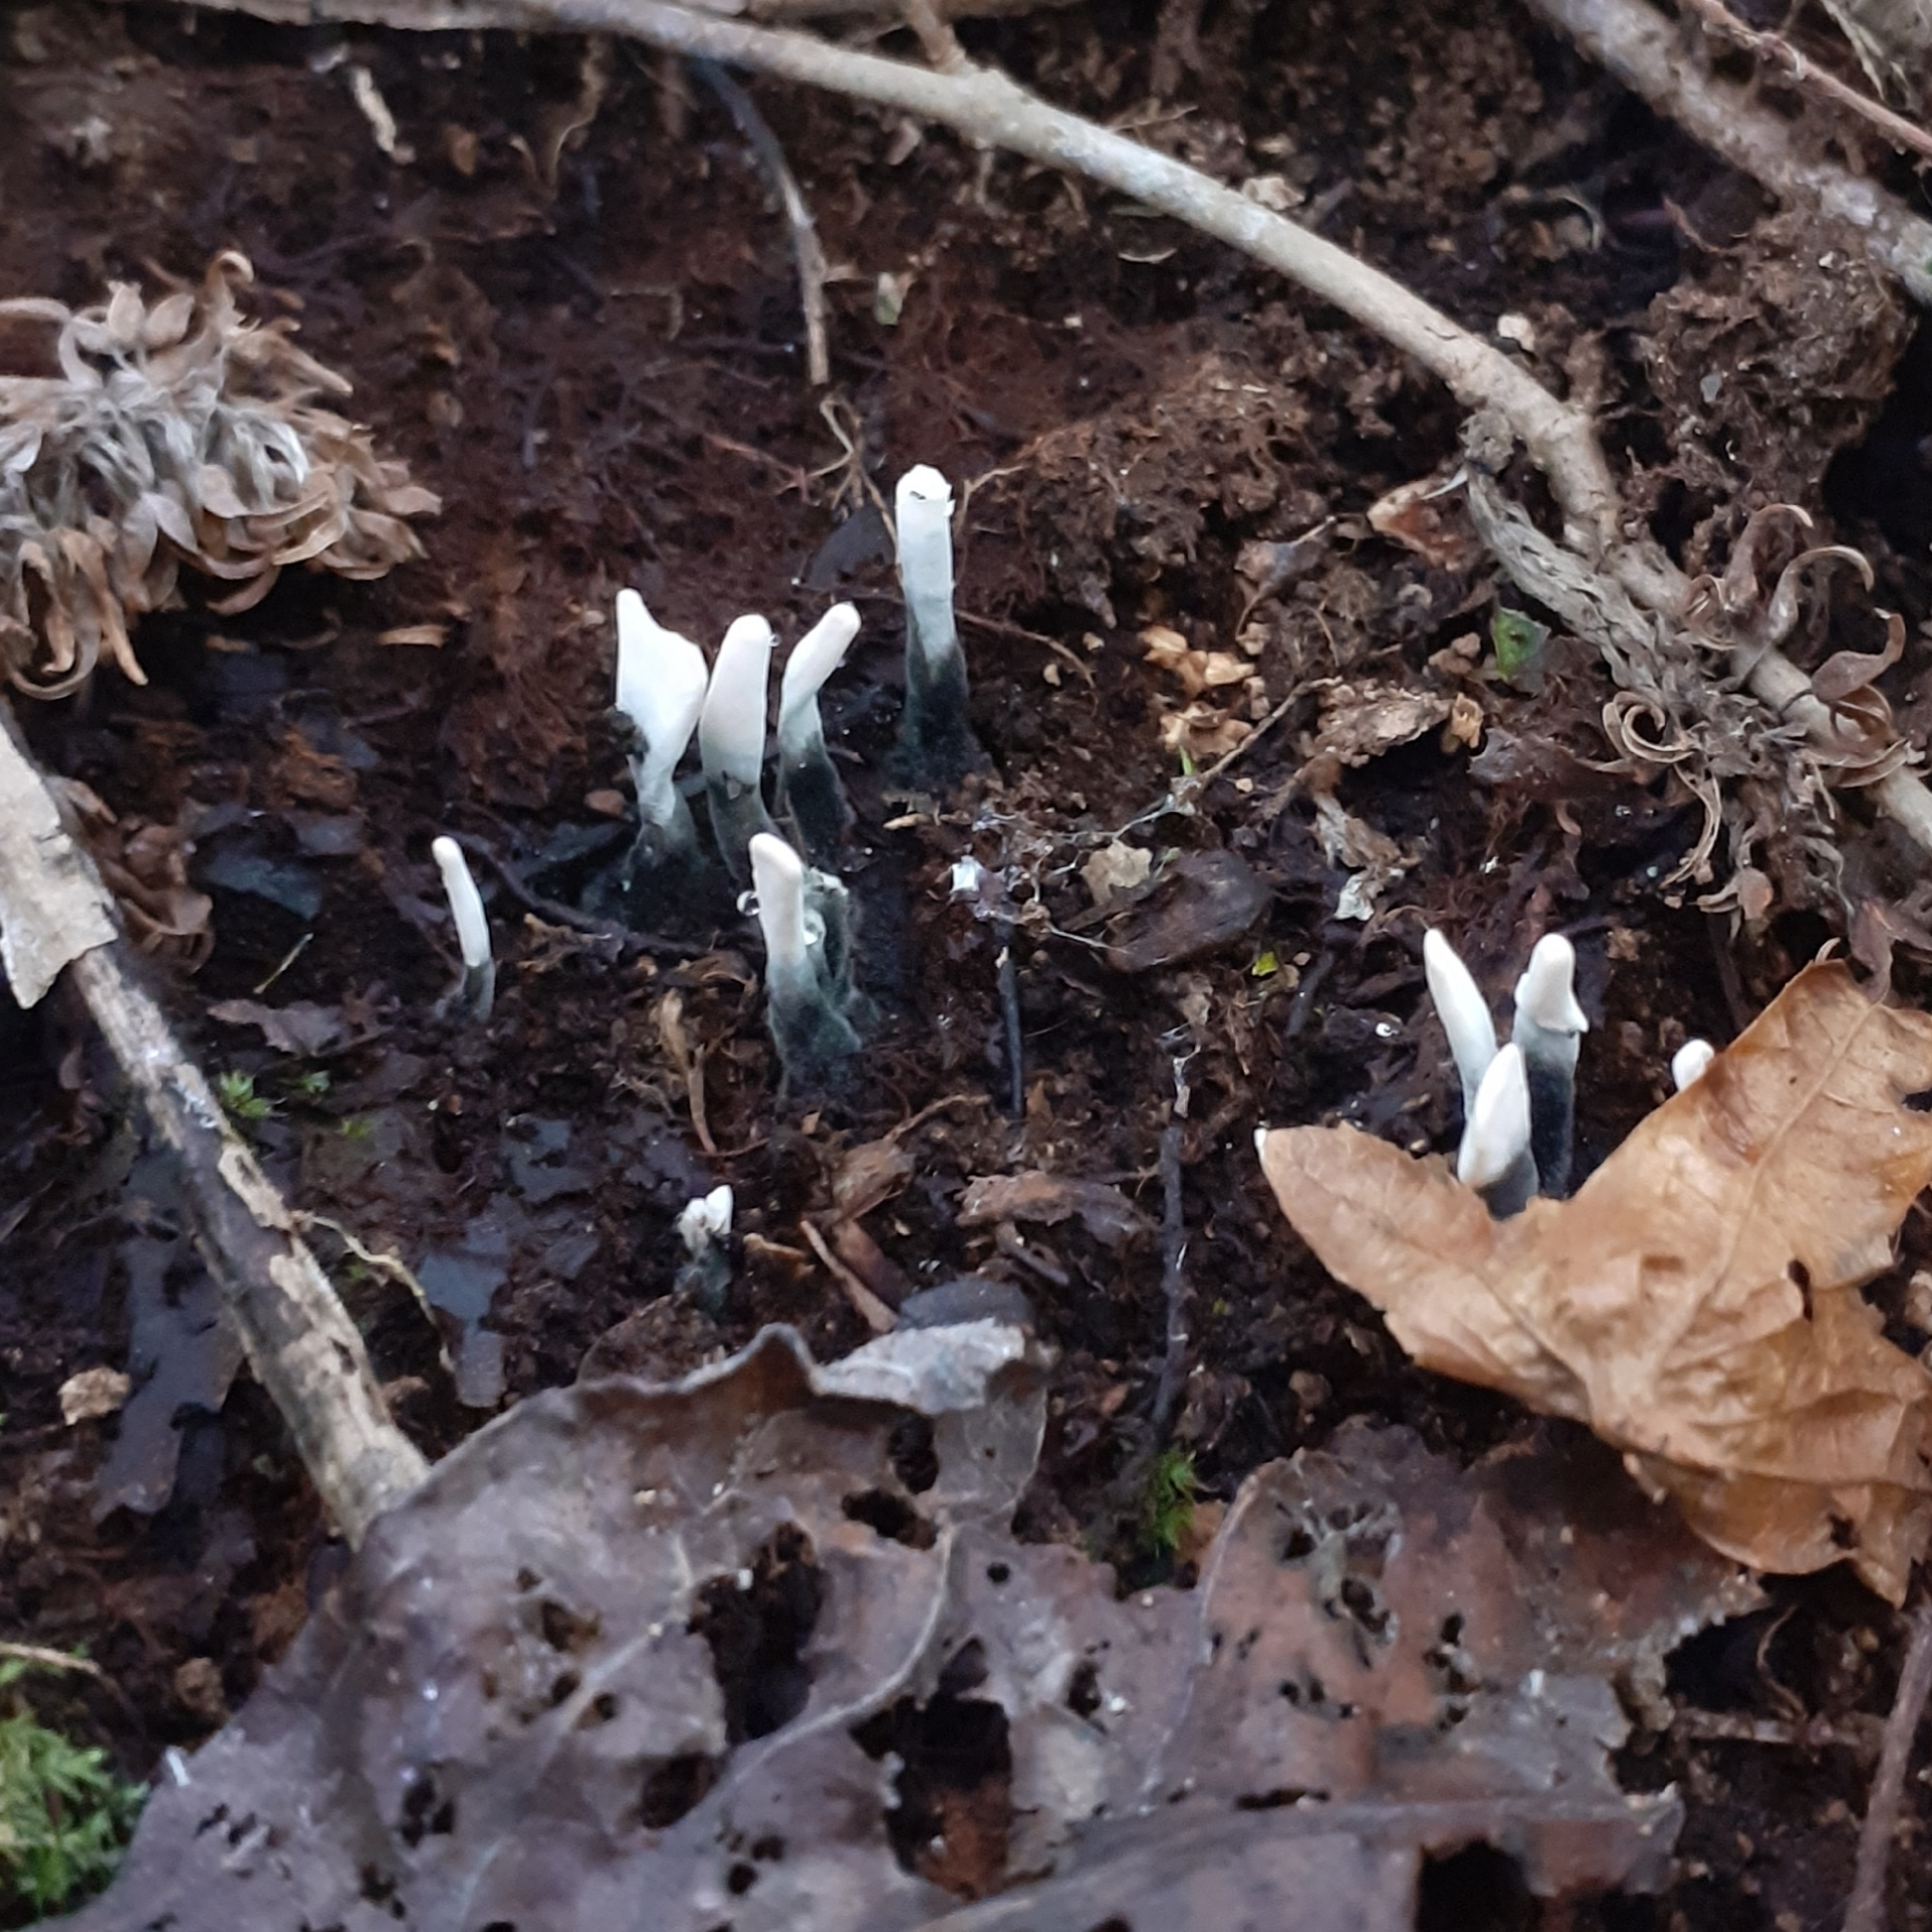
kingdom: Fungi
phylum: Ascomycota
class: Sordariomycetes
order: Xylariales
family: Xylariaceae
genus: Xylaria
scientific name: Xylaria hypoxylon
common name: Candle-snuff fungus
